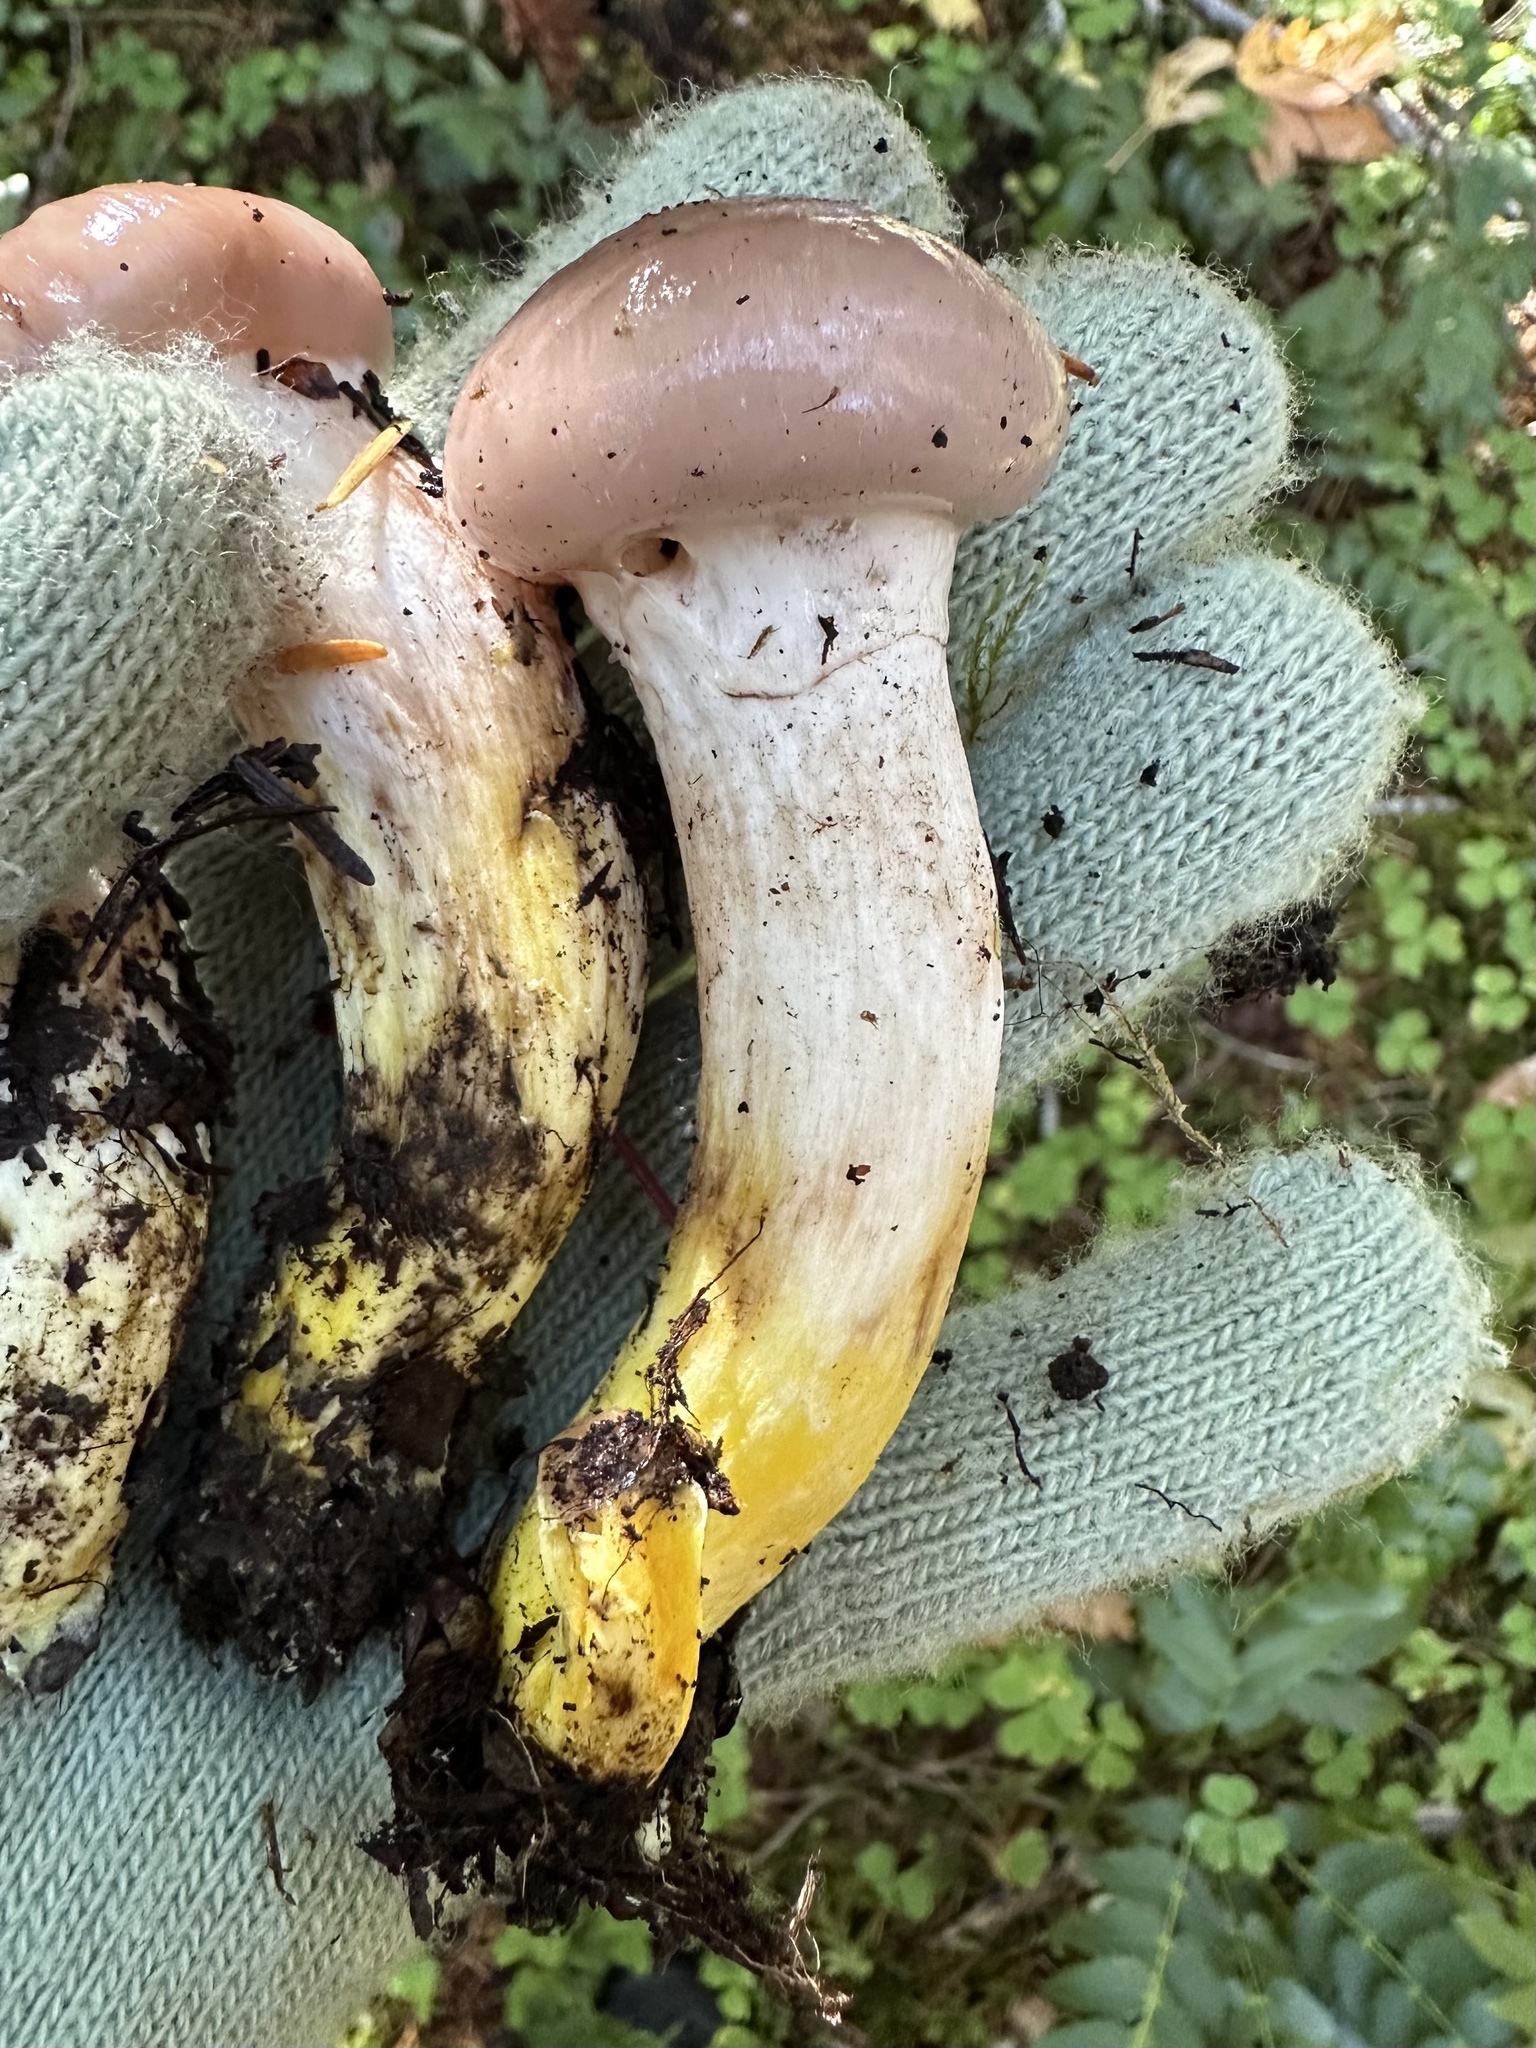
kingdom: Fungi
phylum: Basidiomycota
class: Agaricomycetes
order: Boletales
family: Gomphidiaceae
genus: Gomphidius
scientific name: Gomphidius oregonensis
